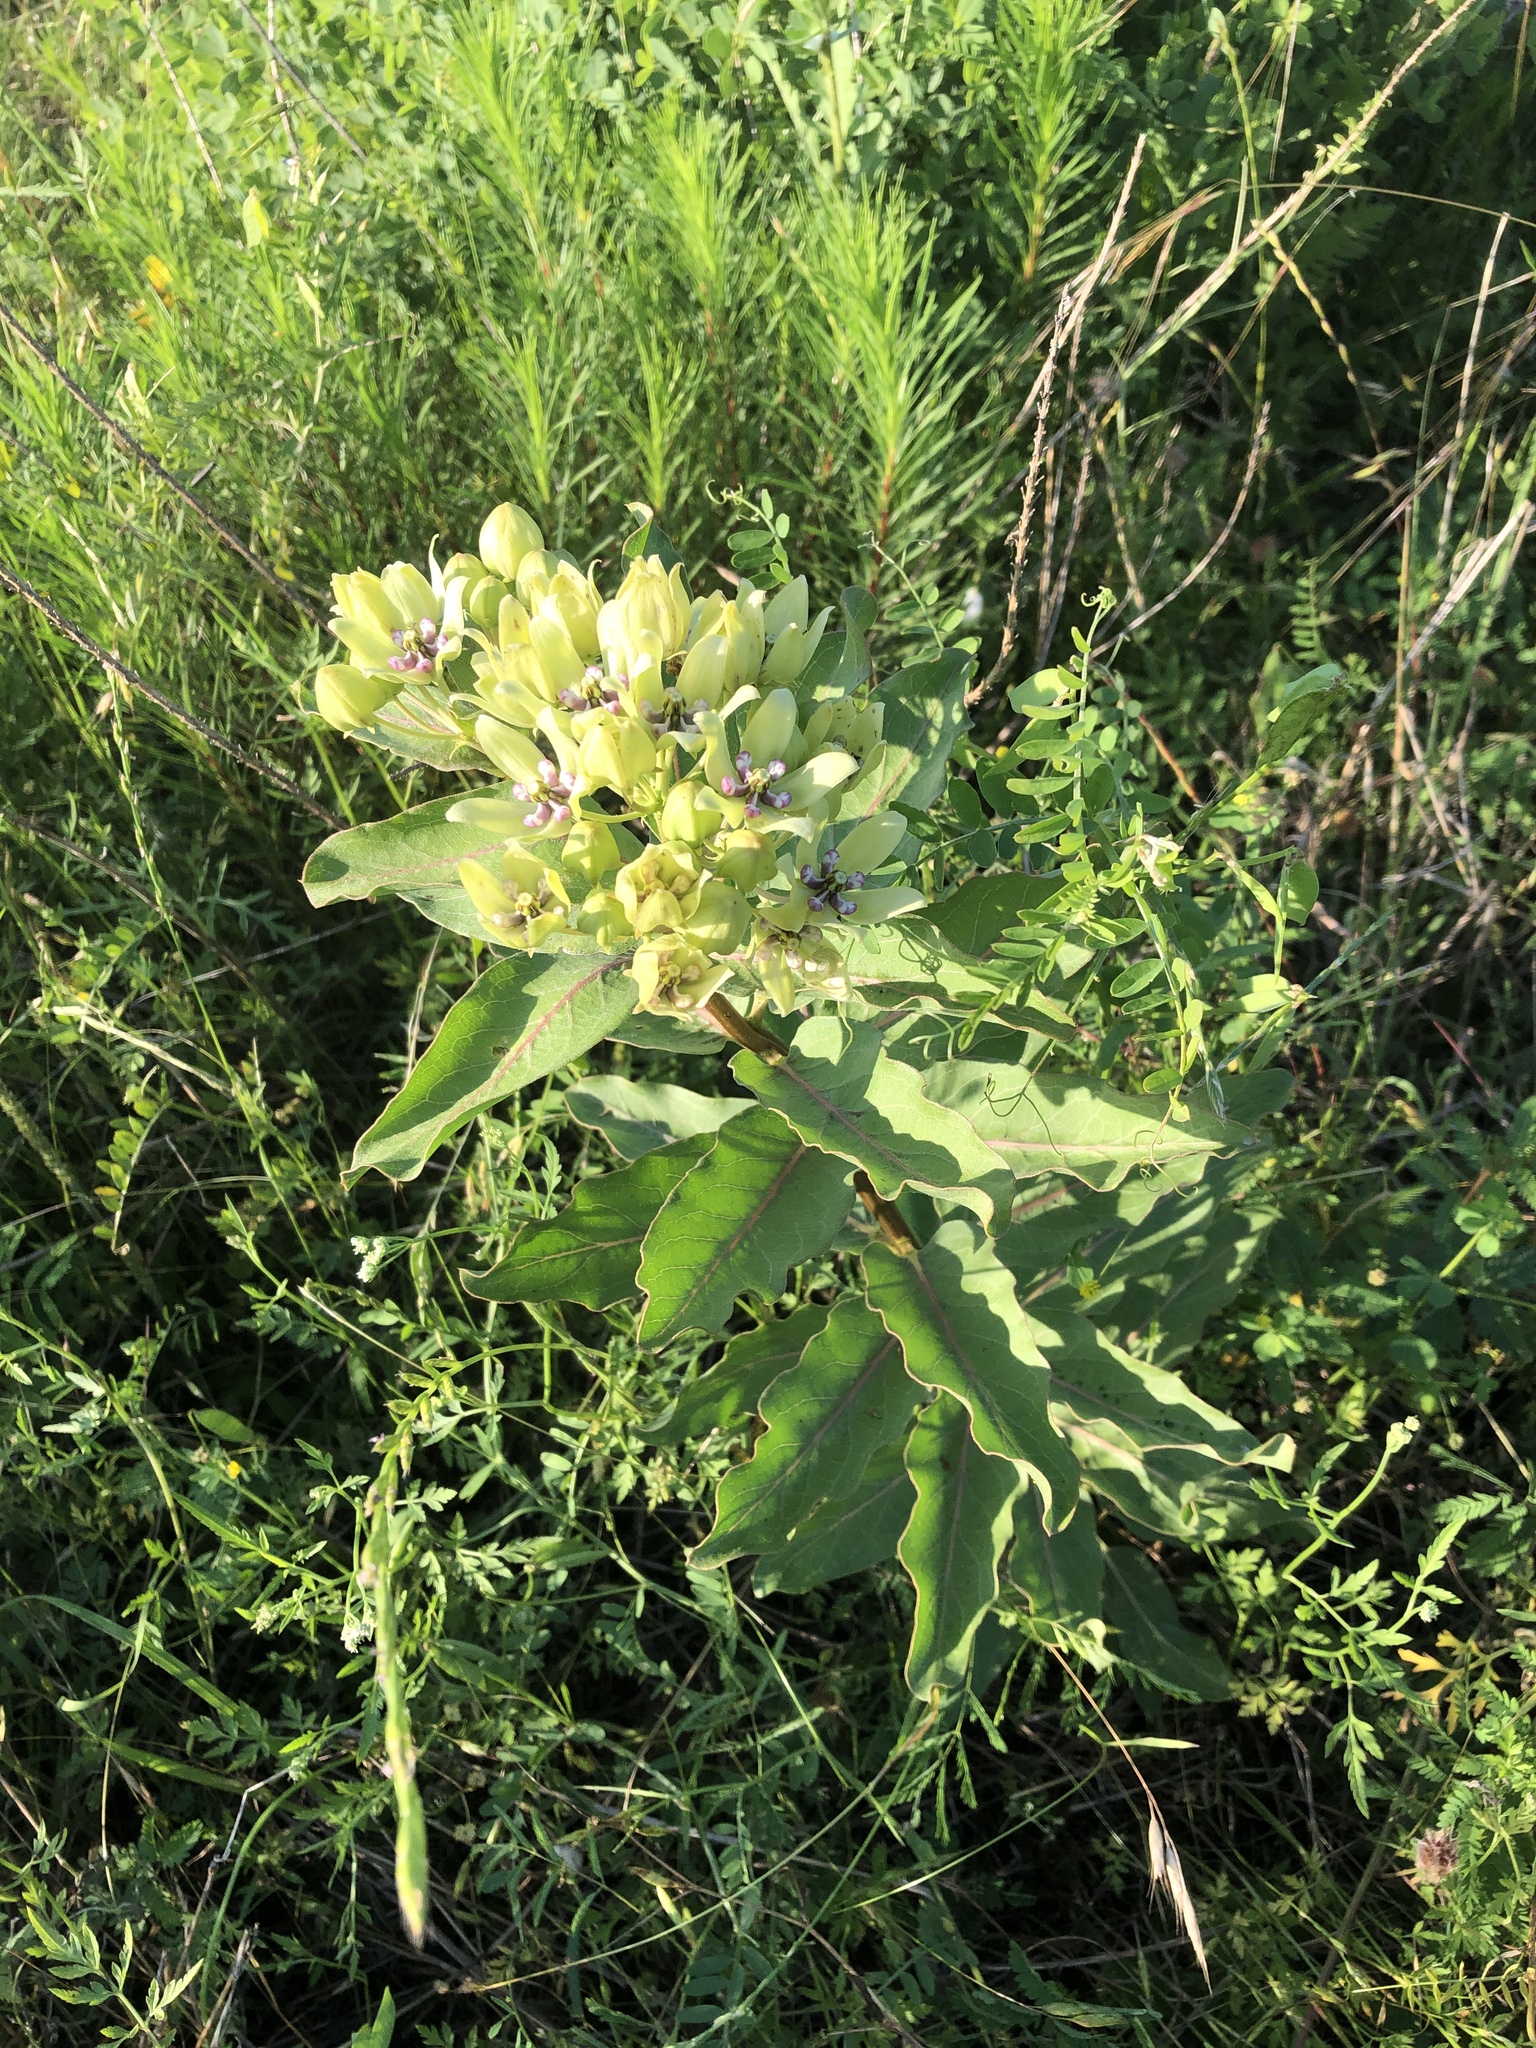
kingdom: Plantae
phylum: Tracheophyta
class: Magnoliopsida
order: Gentianales
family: Apocynaceae
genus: Asclepias
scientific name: Asclepias viridis
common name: Antelope-horns
